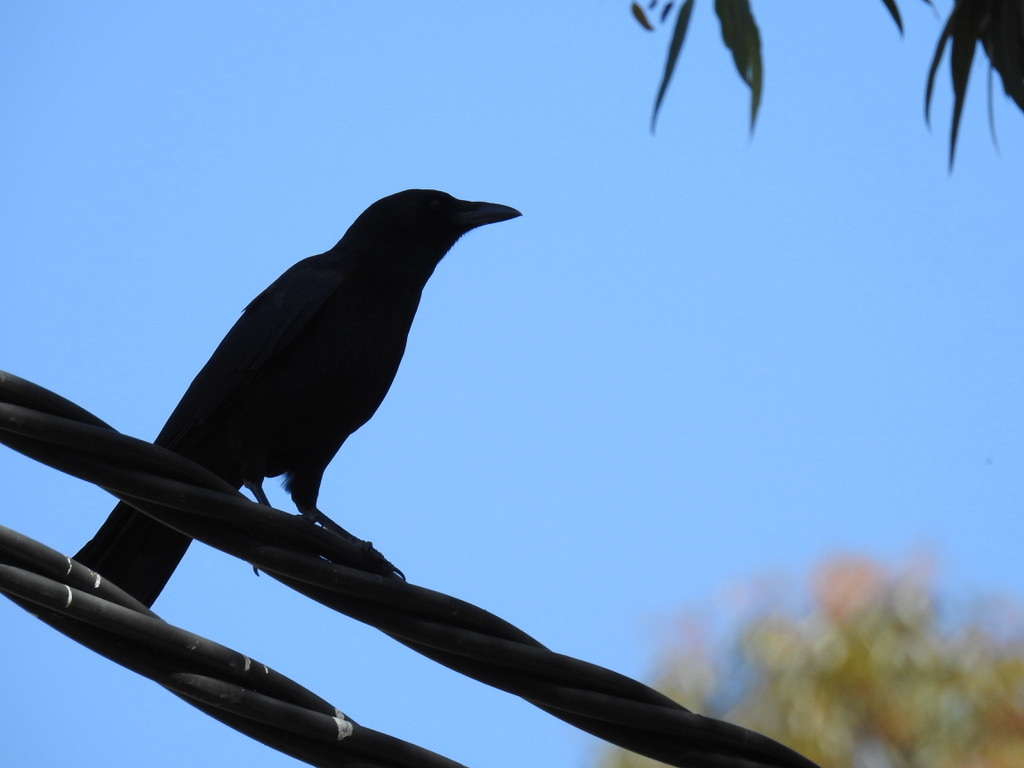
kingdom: Animalia
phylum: Chordata
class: Aves
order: Passeriformes
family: Corvidae
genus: Corvus
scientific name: Corvus brachyrhynchos
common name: American crow
